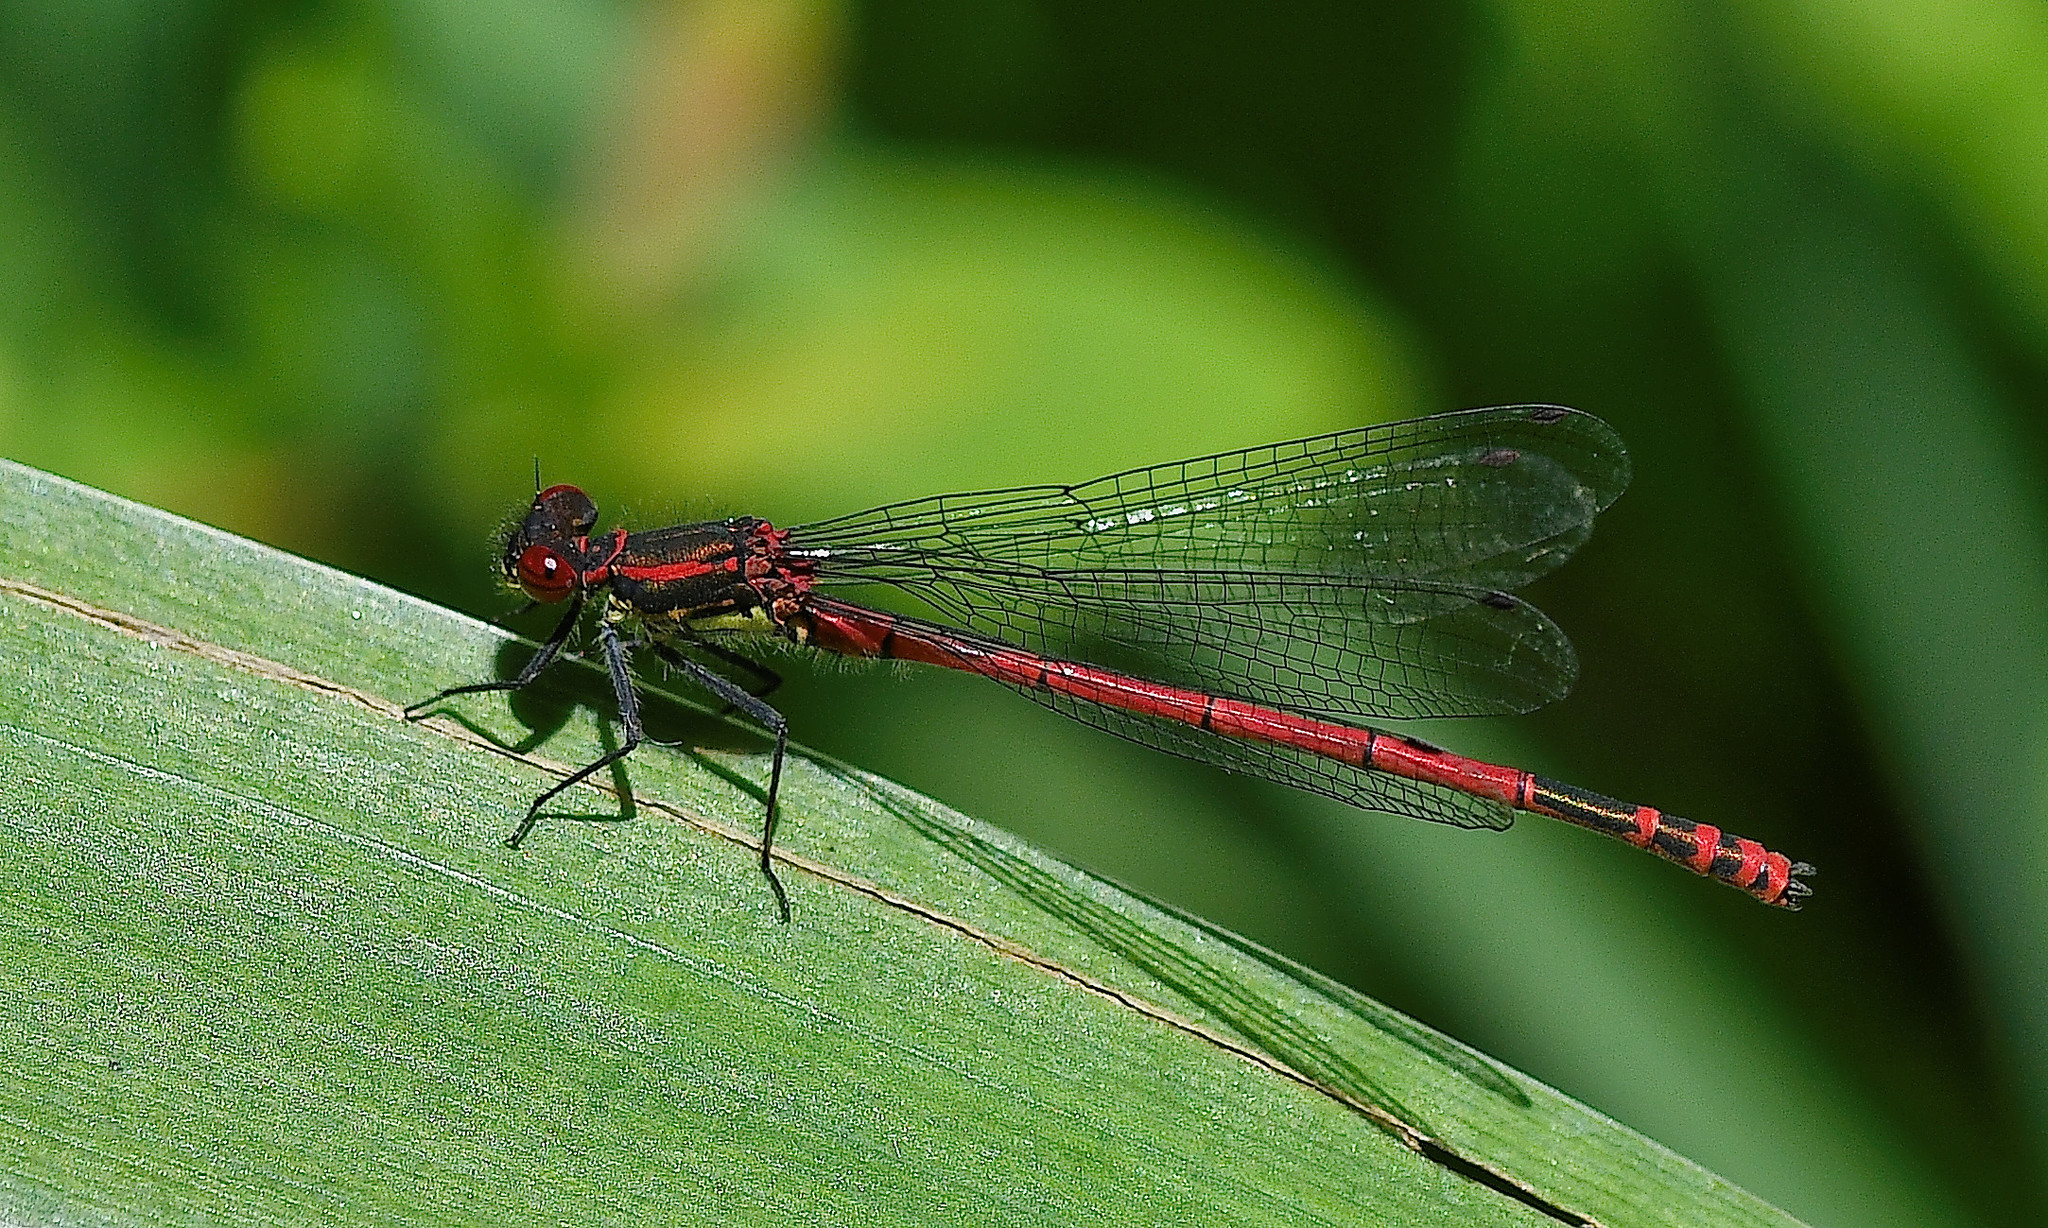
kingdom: Animalia
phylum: Arthropoda
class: Insecta
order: Odonata
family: Coenagrionidae
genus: Pyrrhosoma
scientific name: Pyrrhosoma nymphula
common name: Large red damsel
